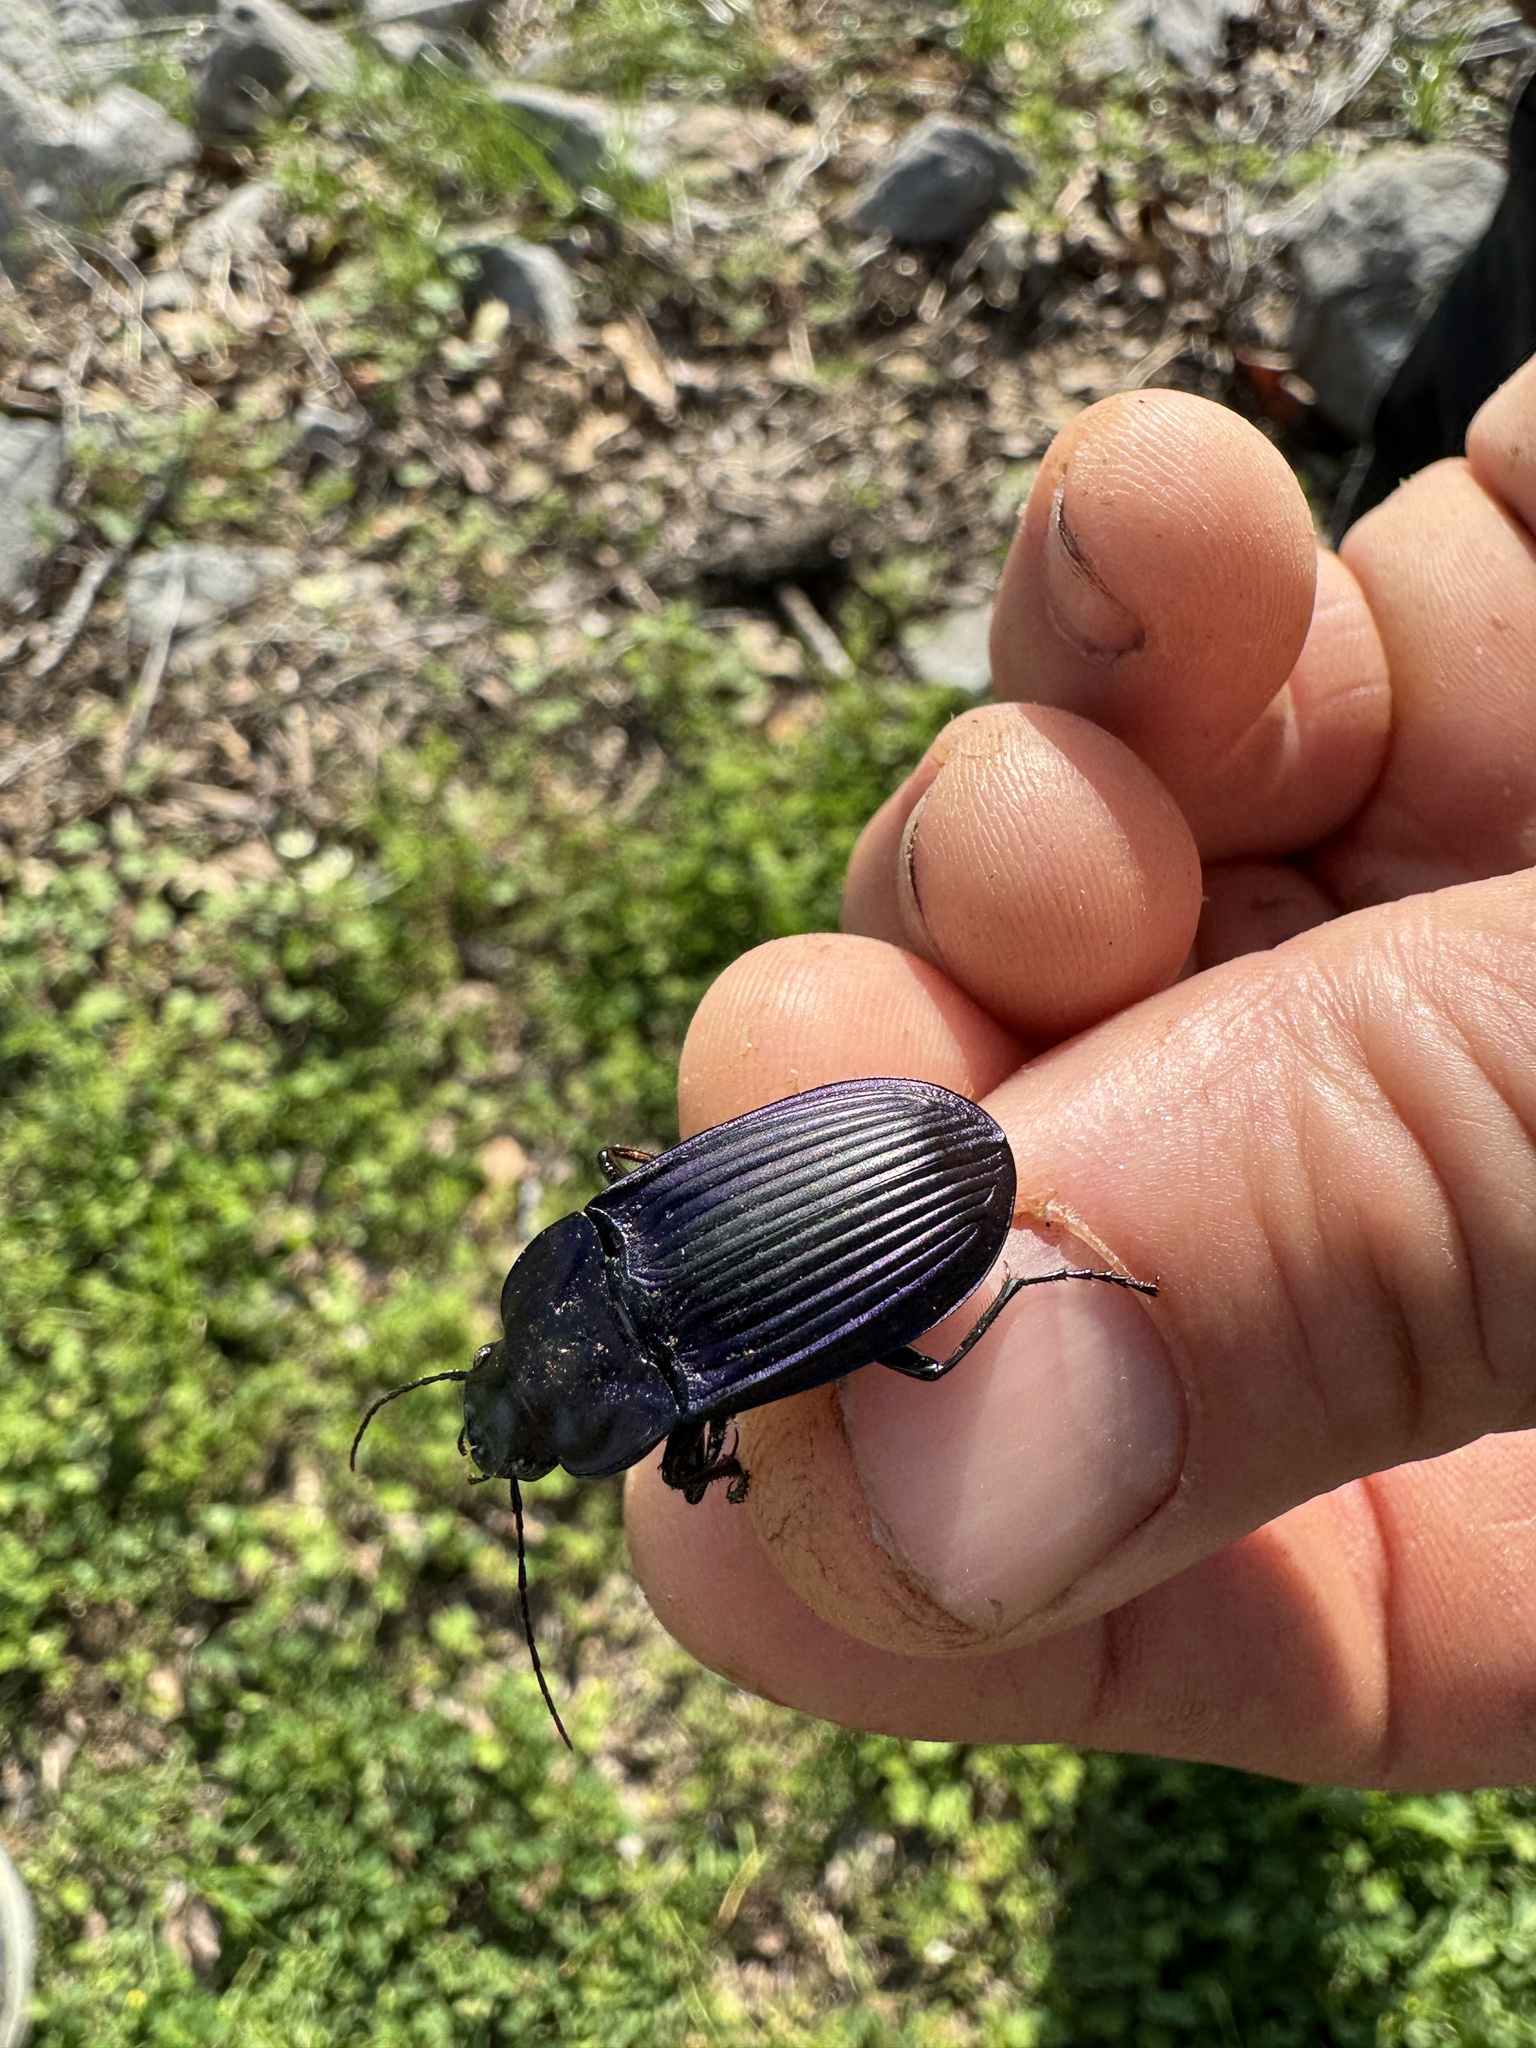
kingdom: Animalia
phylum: Arthropoda
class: Insecta
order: Coleoptera
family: Carabidae
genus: Dicaelus
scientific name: Dicaelus purpuratus
